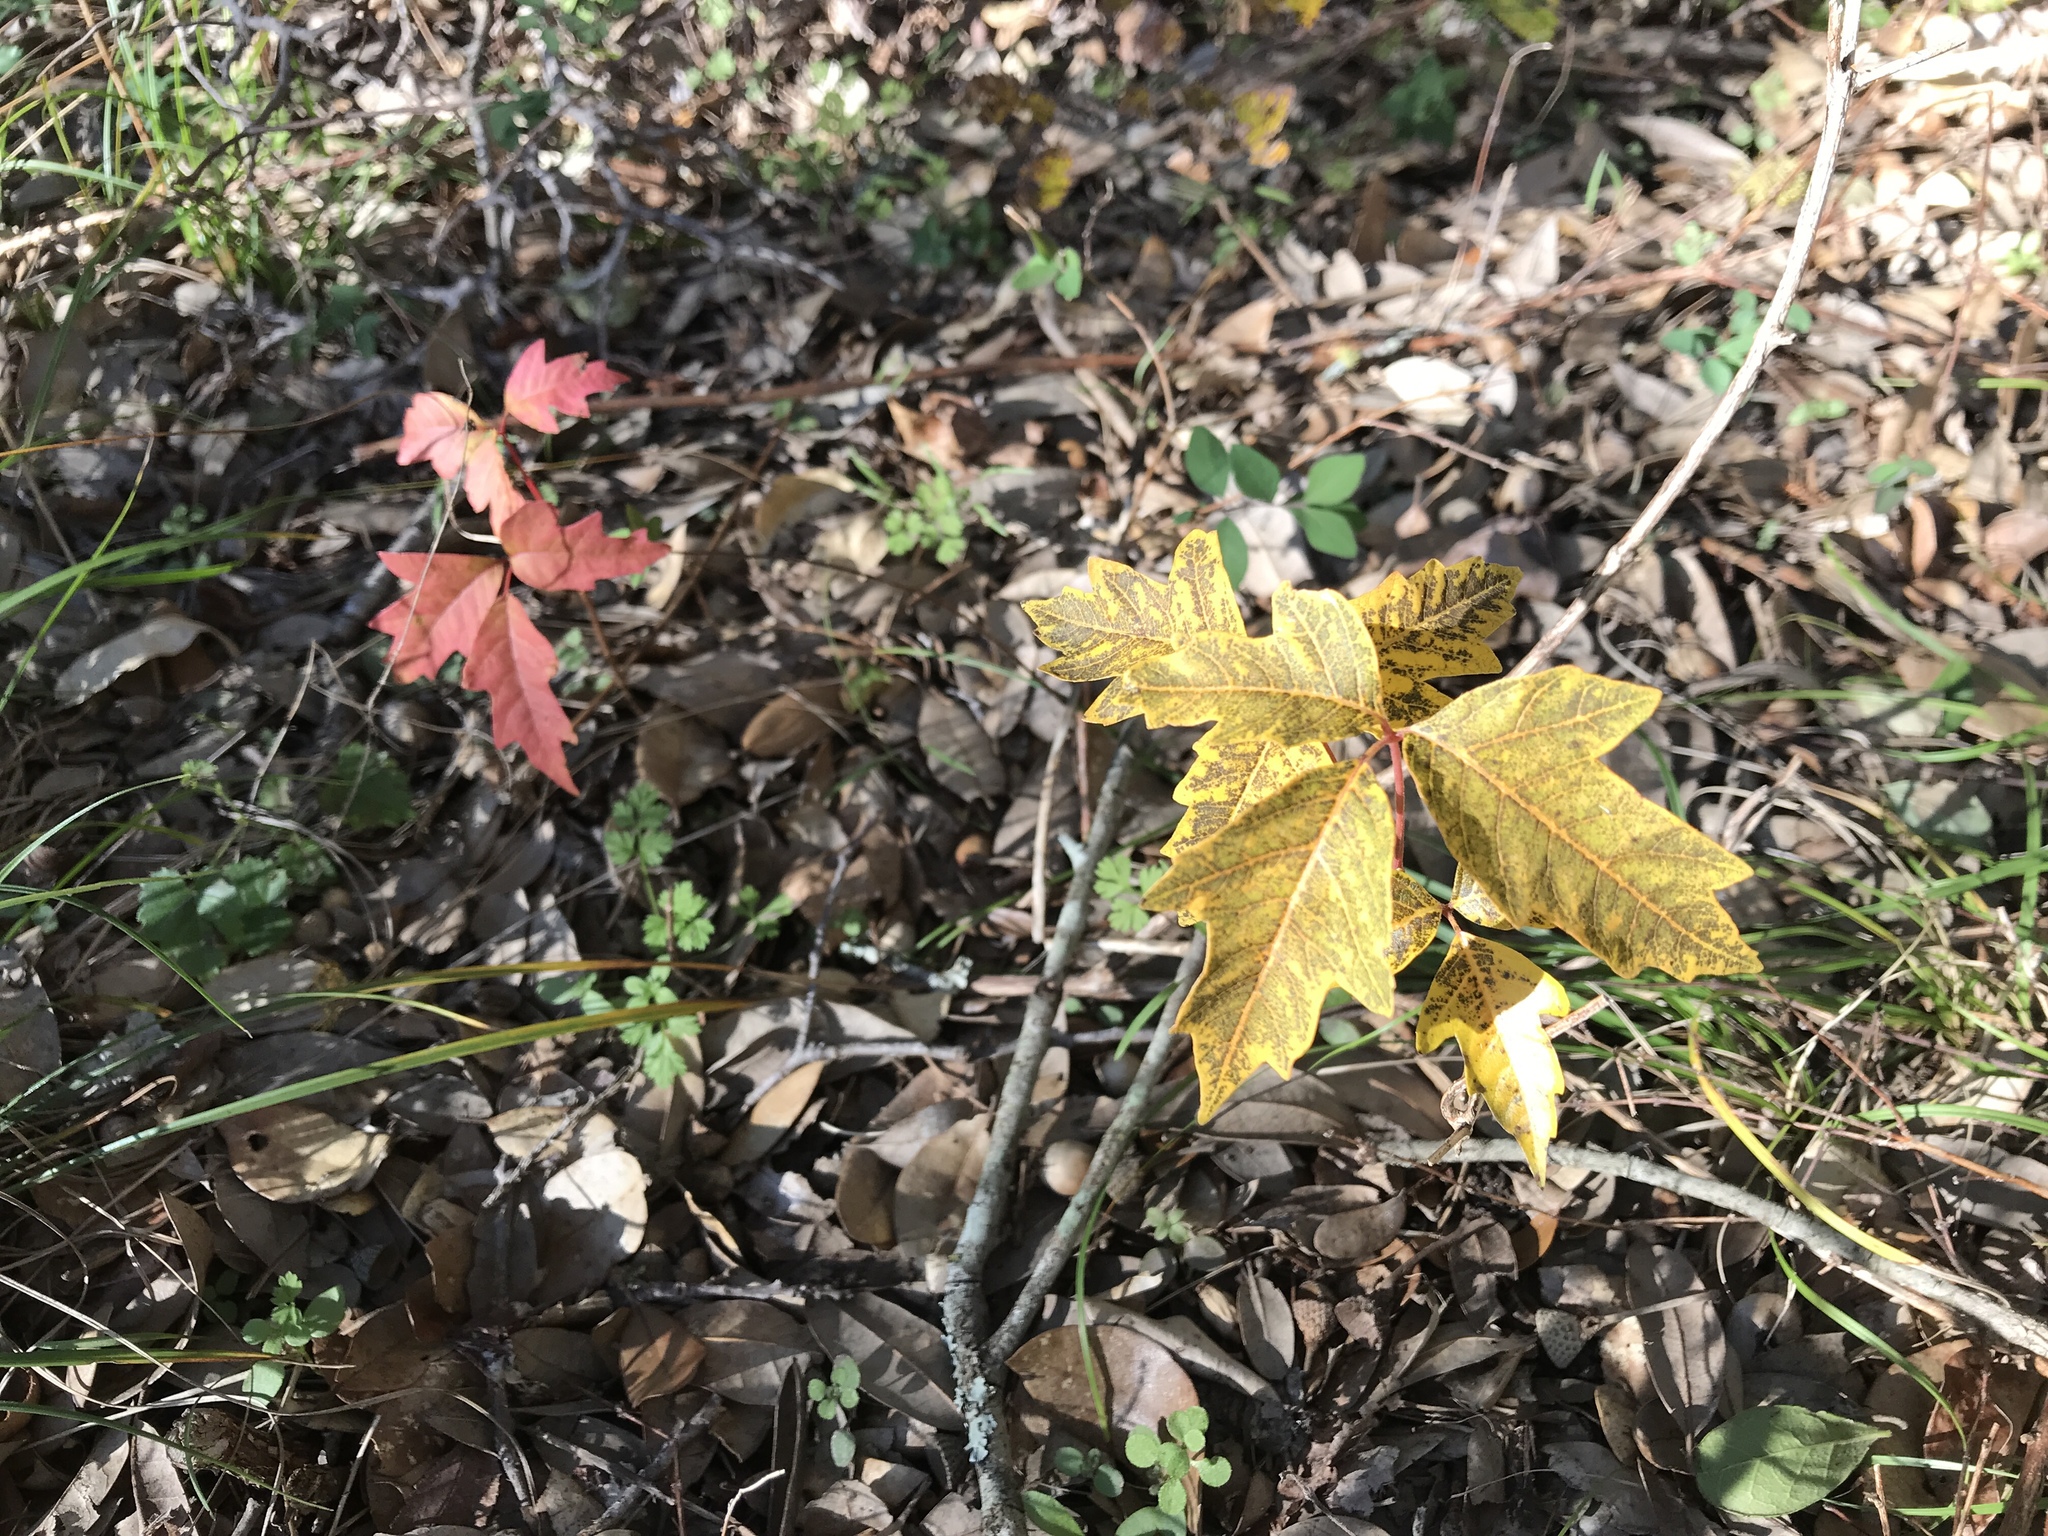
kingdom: Plantae
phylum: Tracheophyta
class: Magnoliopsida
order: Sapindales
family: Anacardiaceae
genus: Toxicodendron
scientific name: Toxicodendron radicans
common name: Poison ivy
